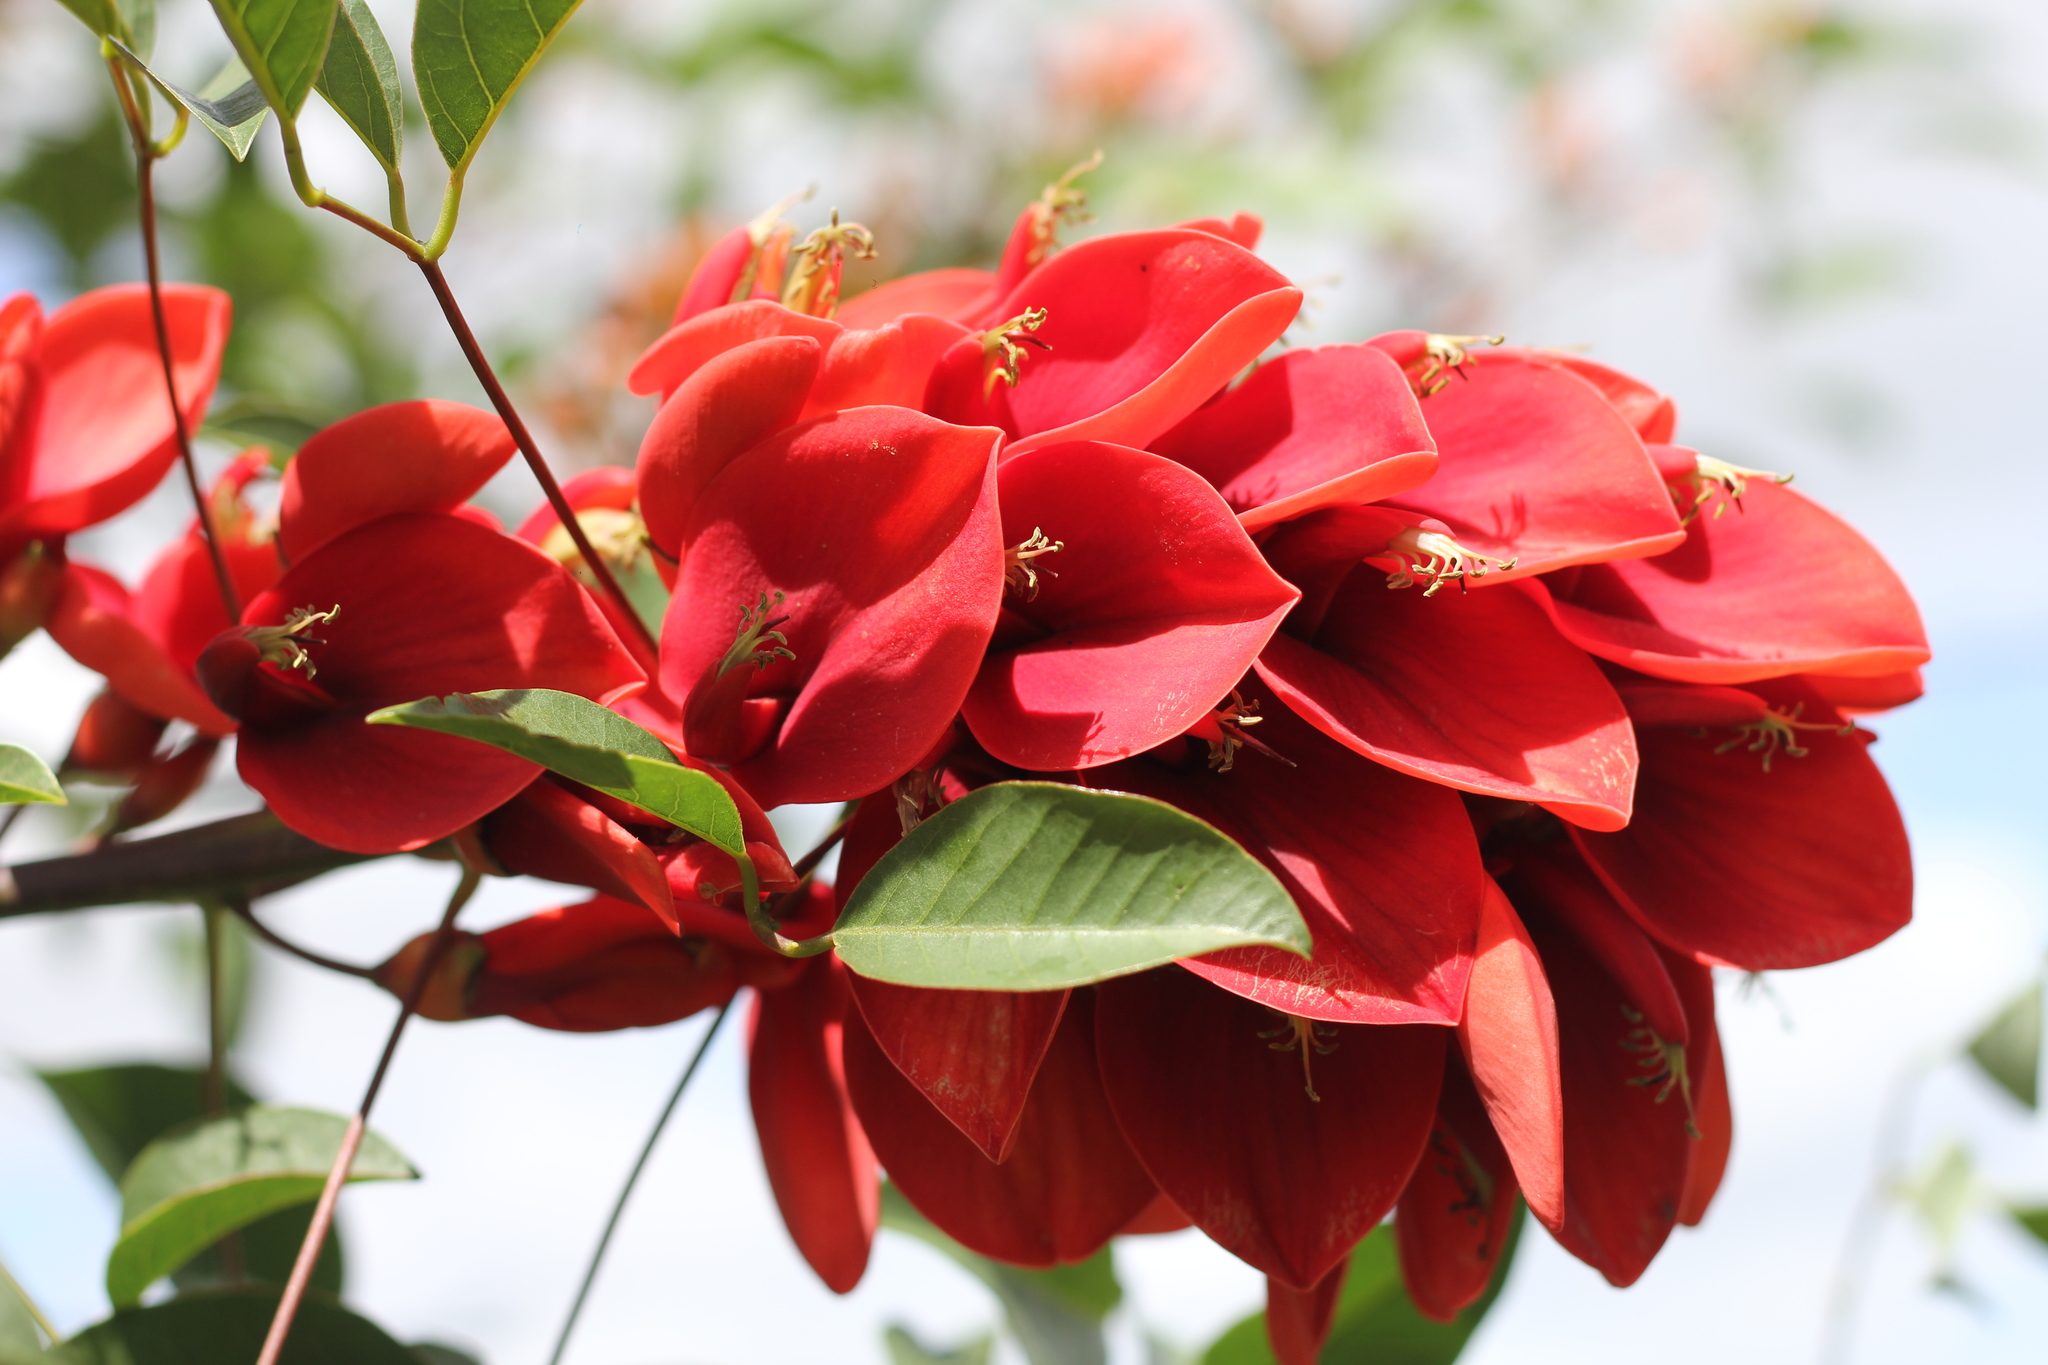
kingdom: Plantae
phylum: Tracheophyta
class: Magnoliopsida
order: Fabales
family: Fabaceae
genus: Erythrina
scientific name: Erythrina crista-galli
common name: Cockspur coral tree
